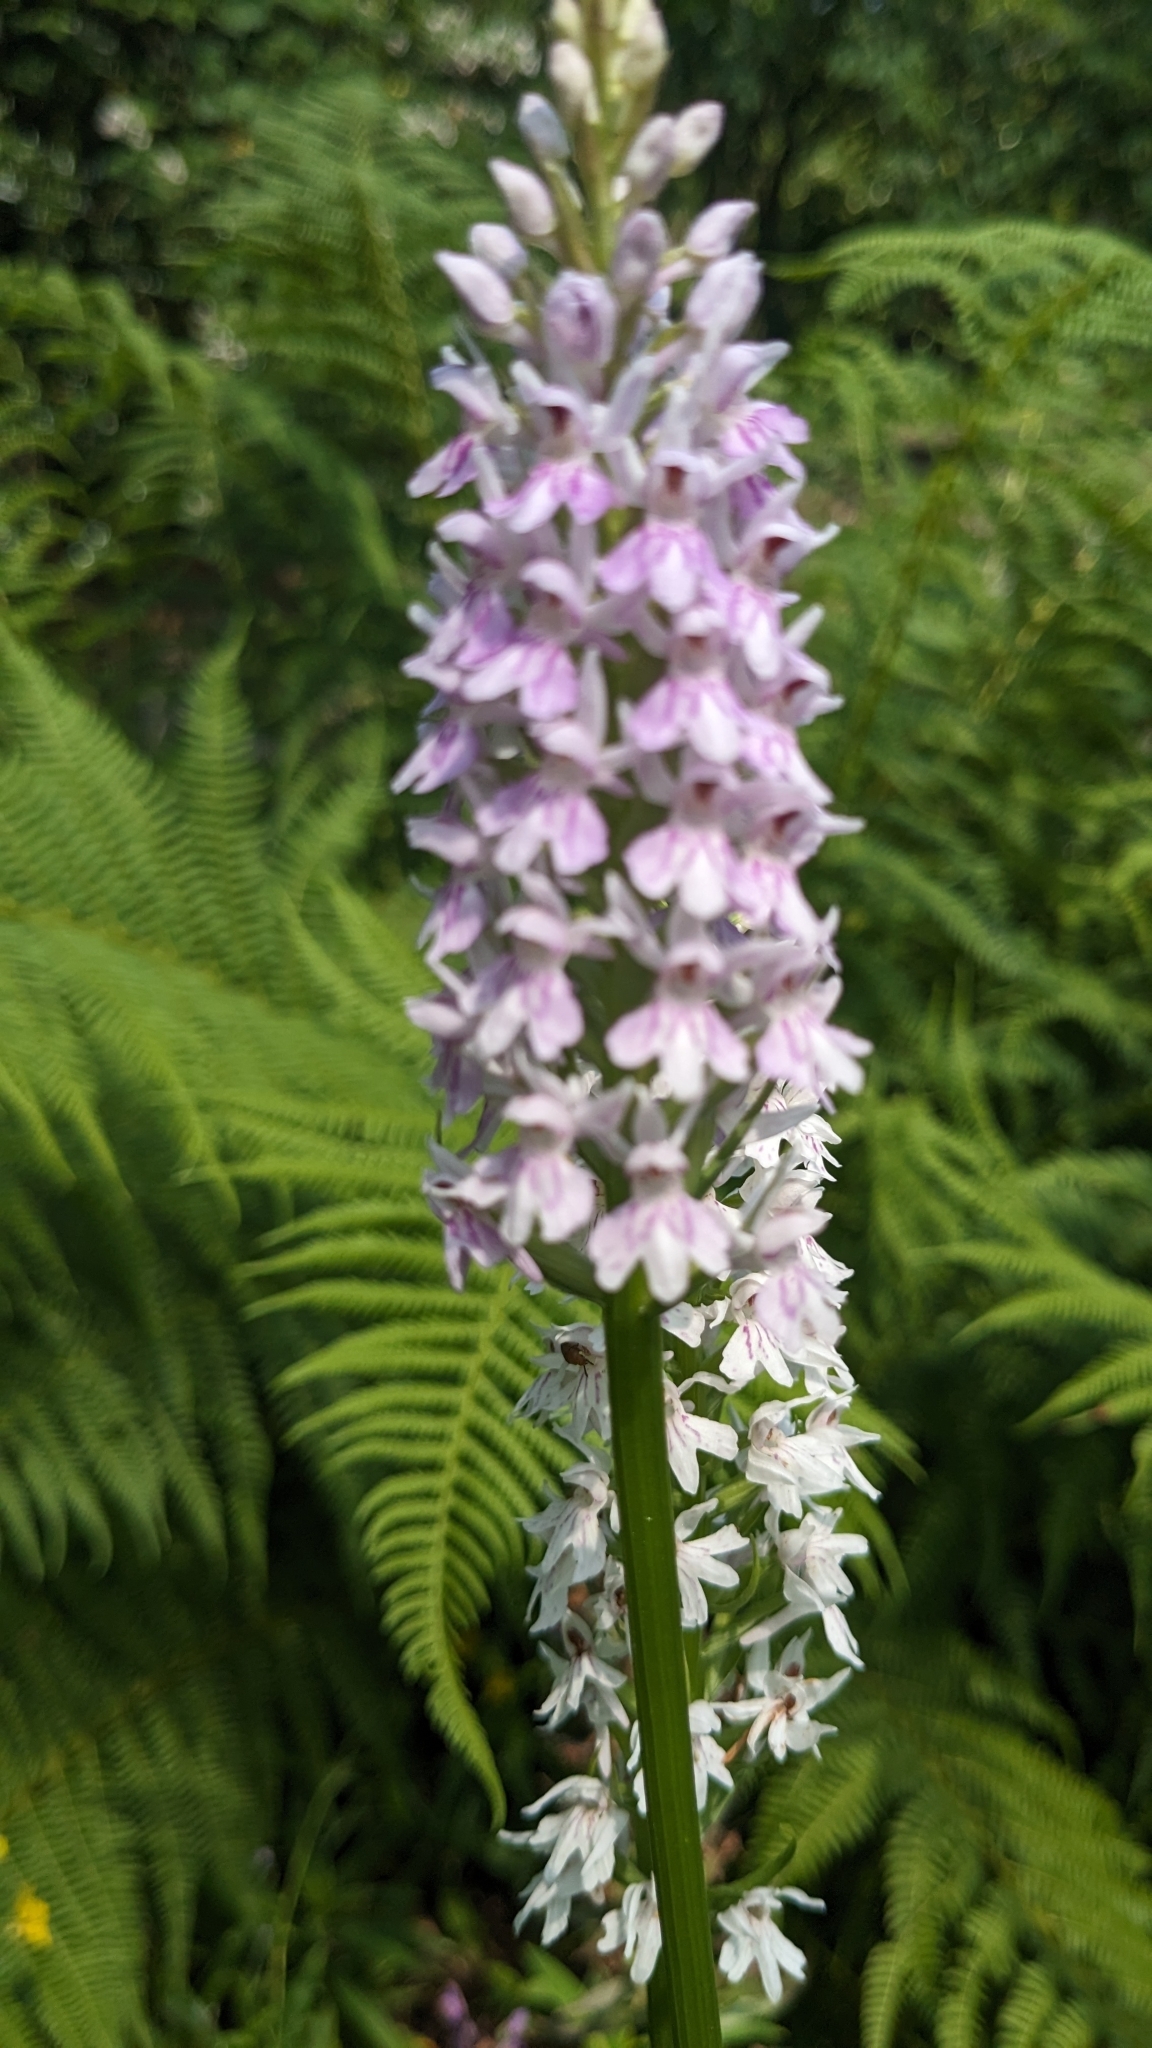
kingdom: Plantae
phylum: Tracheophyta
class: Liliopsida
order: Asparagales
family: Orchidaceae
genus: Dactylorhiza
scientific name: Dactylorhiza maculata
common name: Heath spotted-orchid
